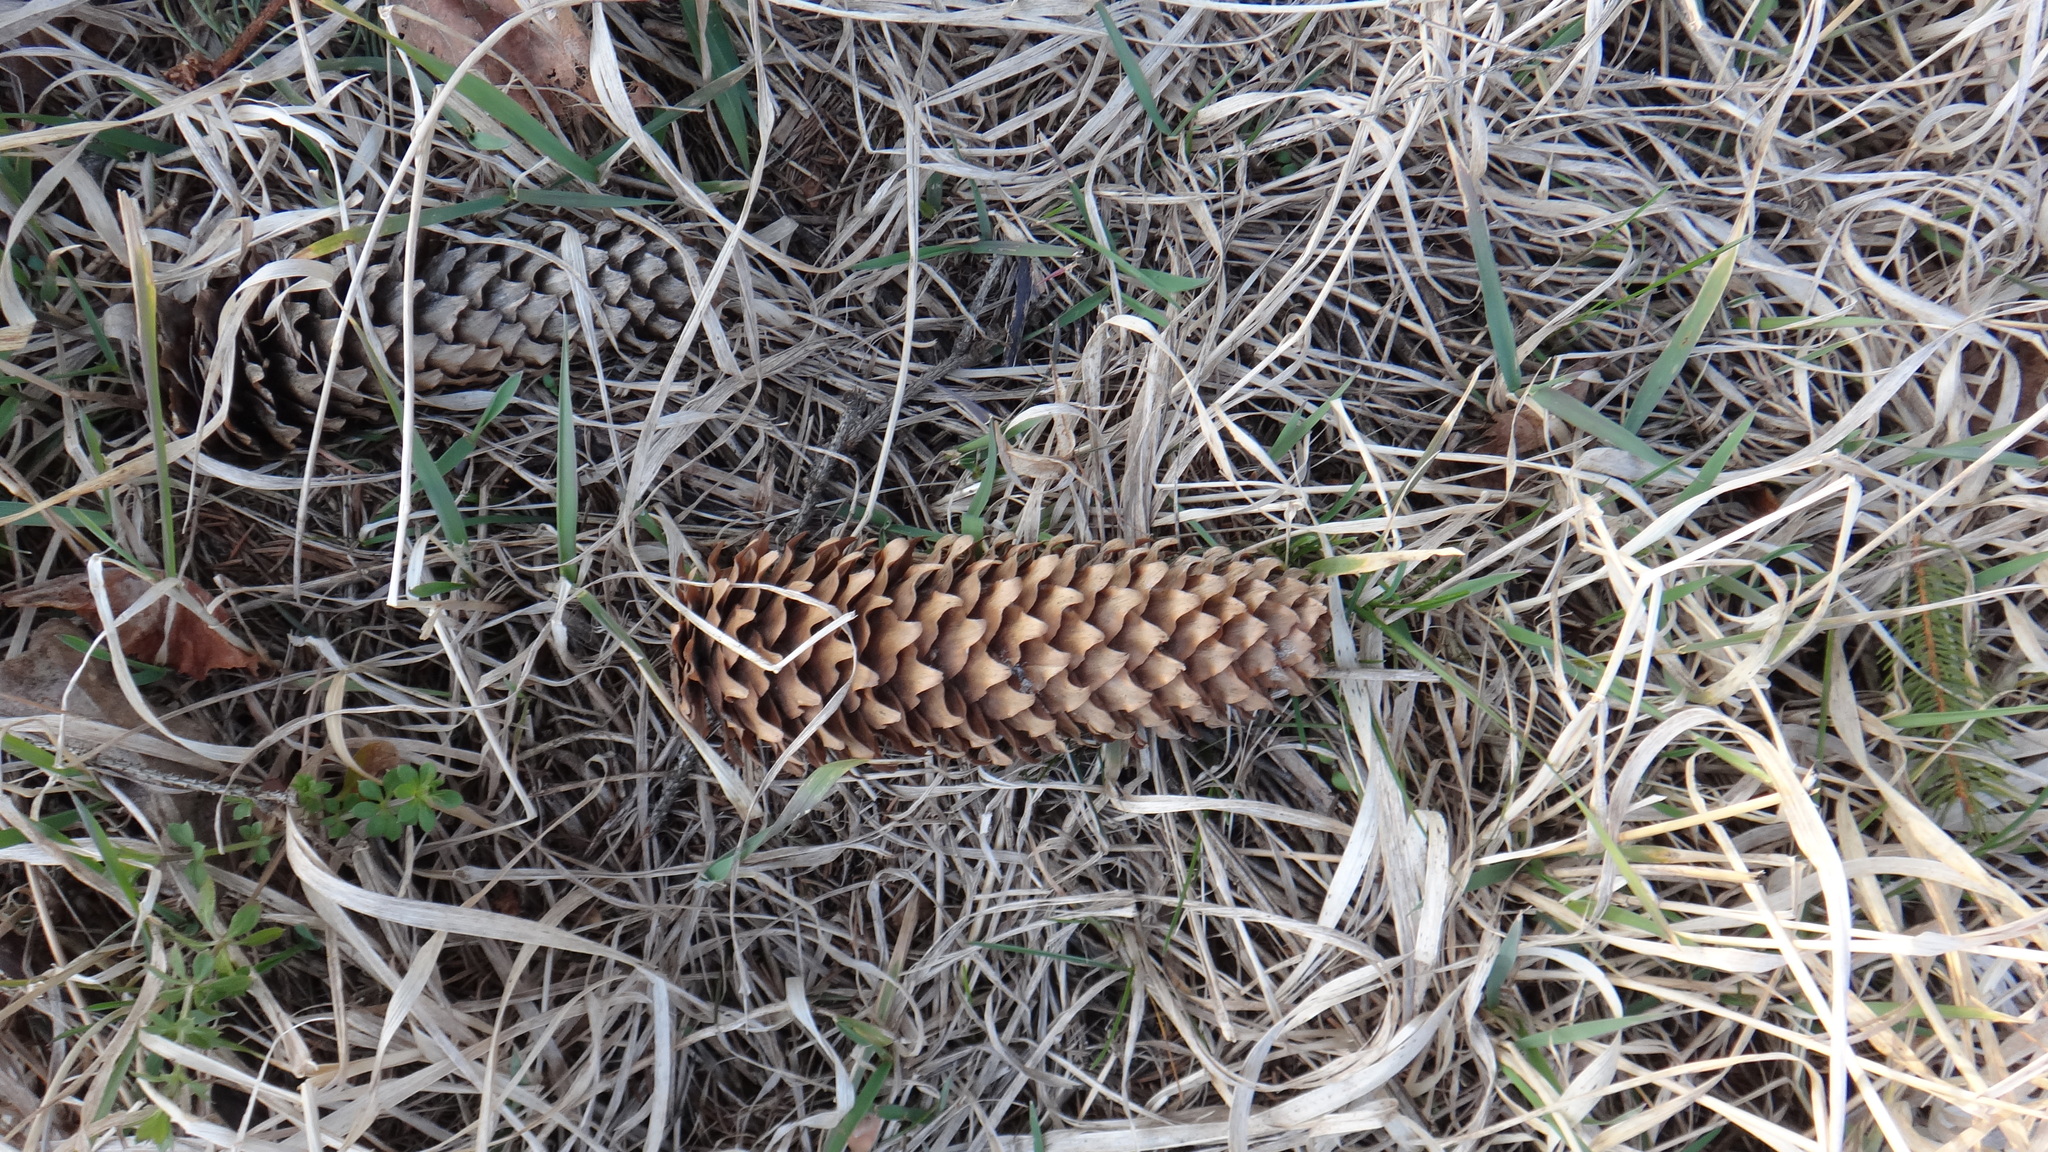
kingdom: Plantae
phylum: Tracheophyta
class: Pinopsida
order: Pinales
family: Pinaceae
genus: Picea
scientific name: Picea abies
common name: Norway spruce
